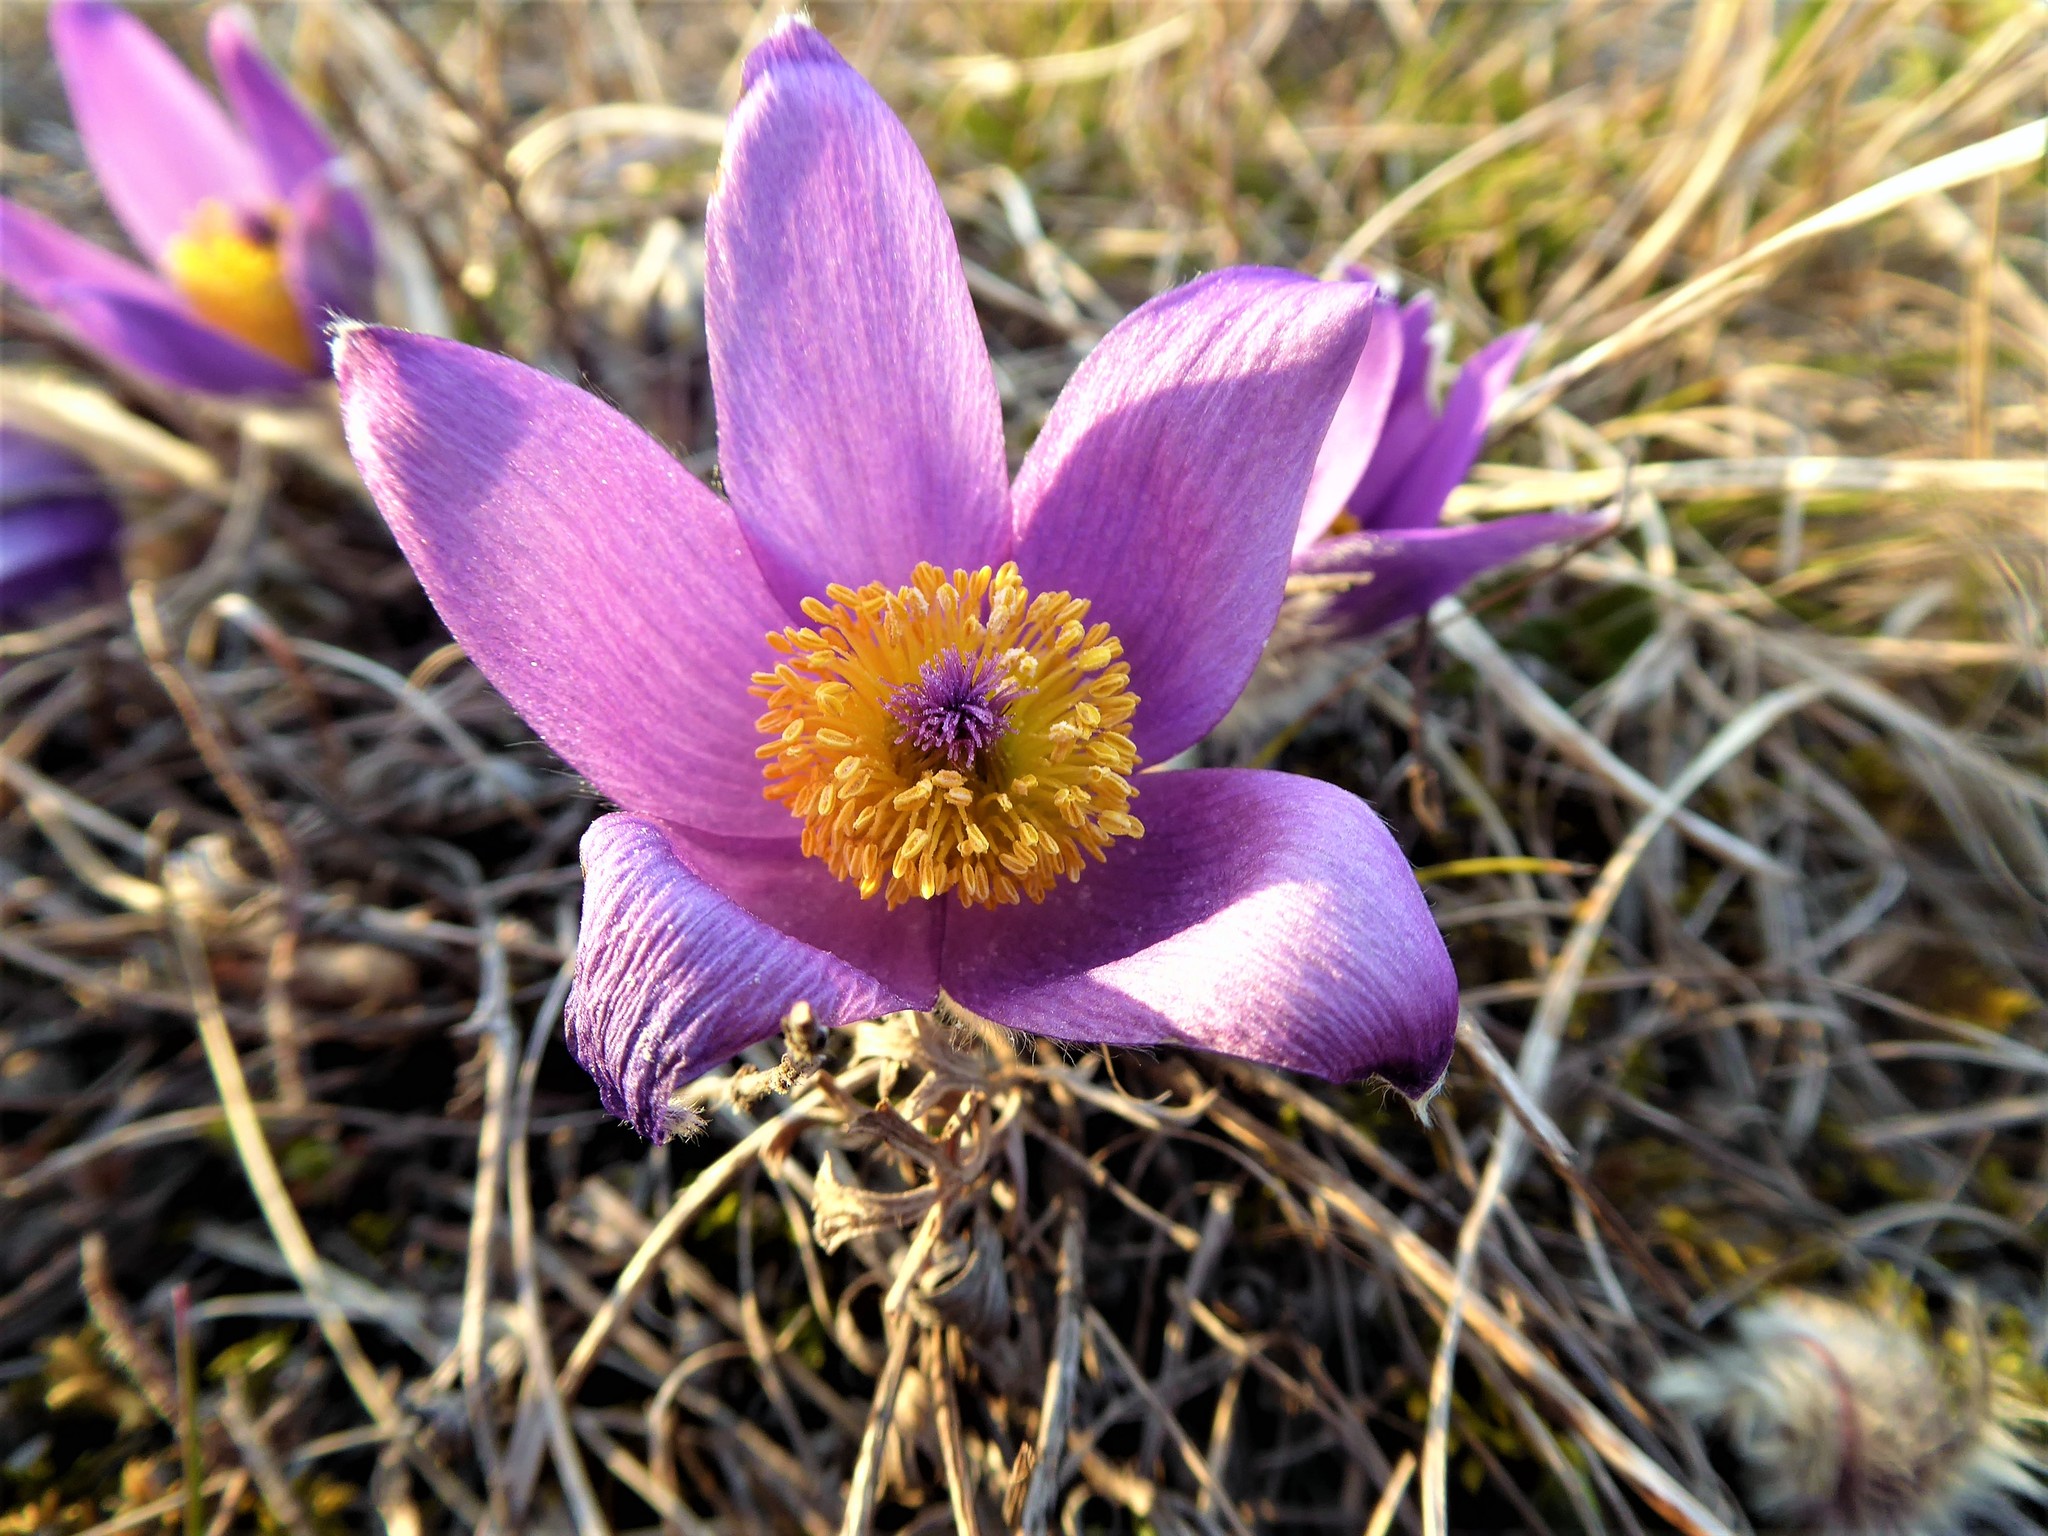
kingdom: Plantae
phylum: Tracheophyta
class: Magnoliopsida
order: Ranunculales
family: Ranunculaceae
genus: Pulsatilla
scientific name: Pulsatilla grandis
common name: Greater pasque flower
